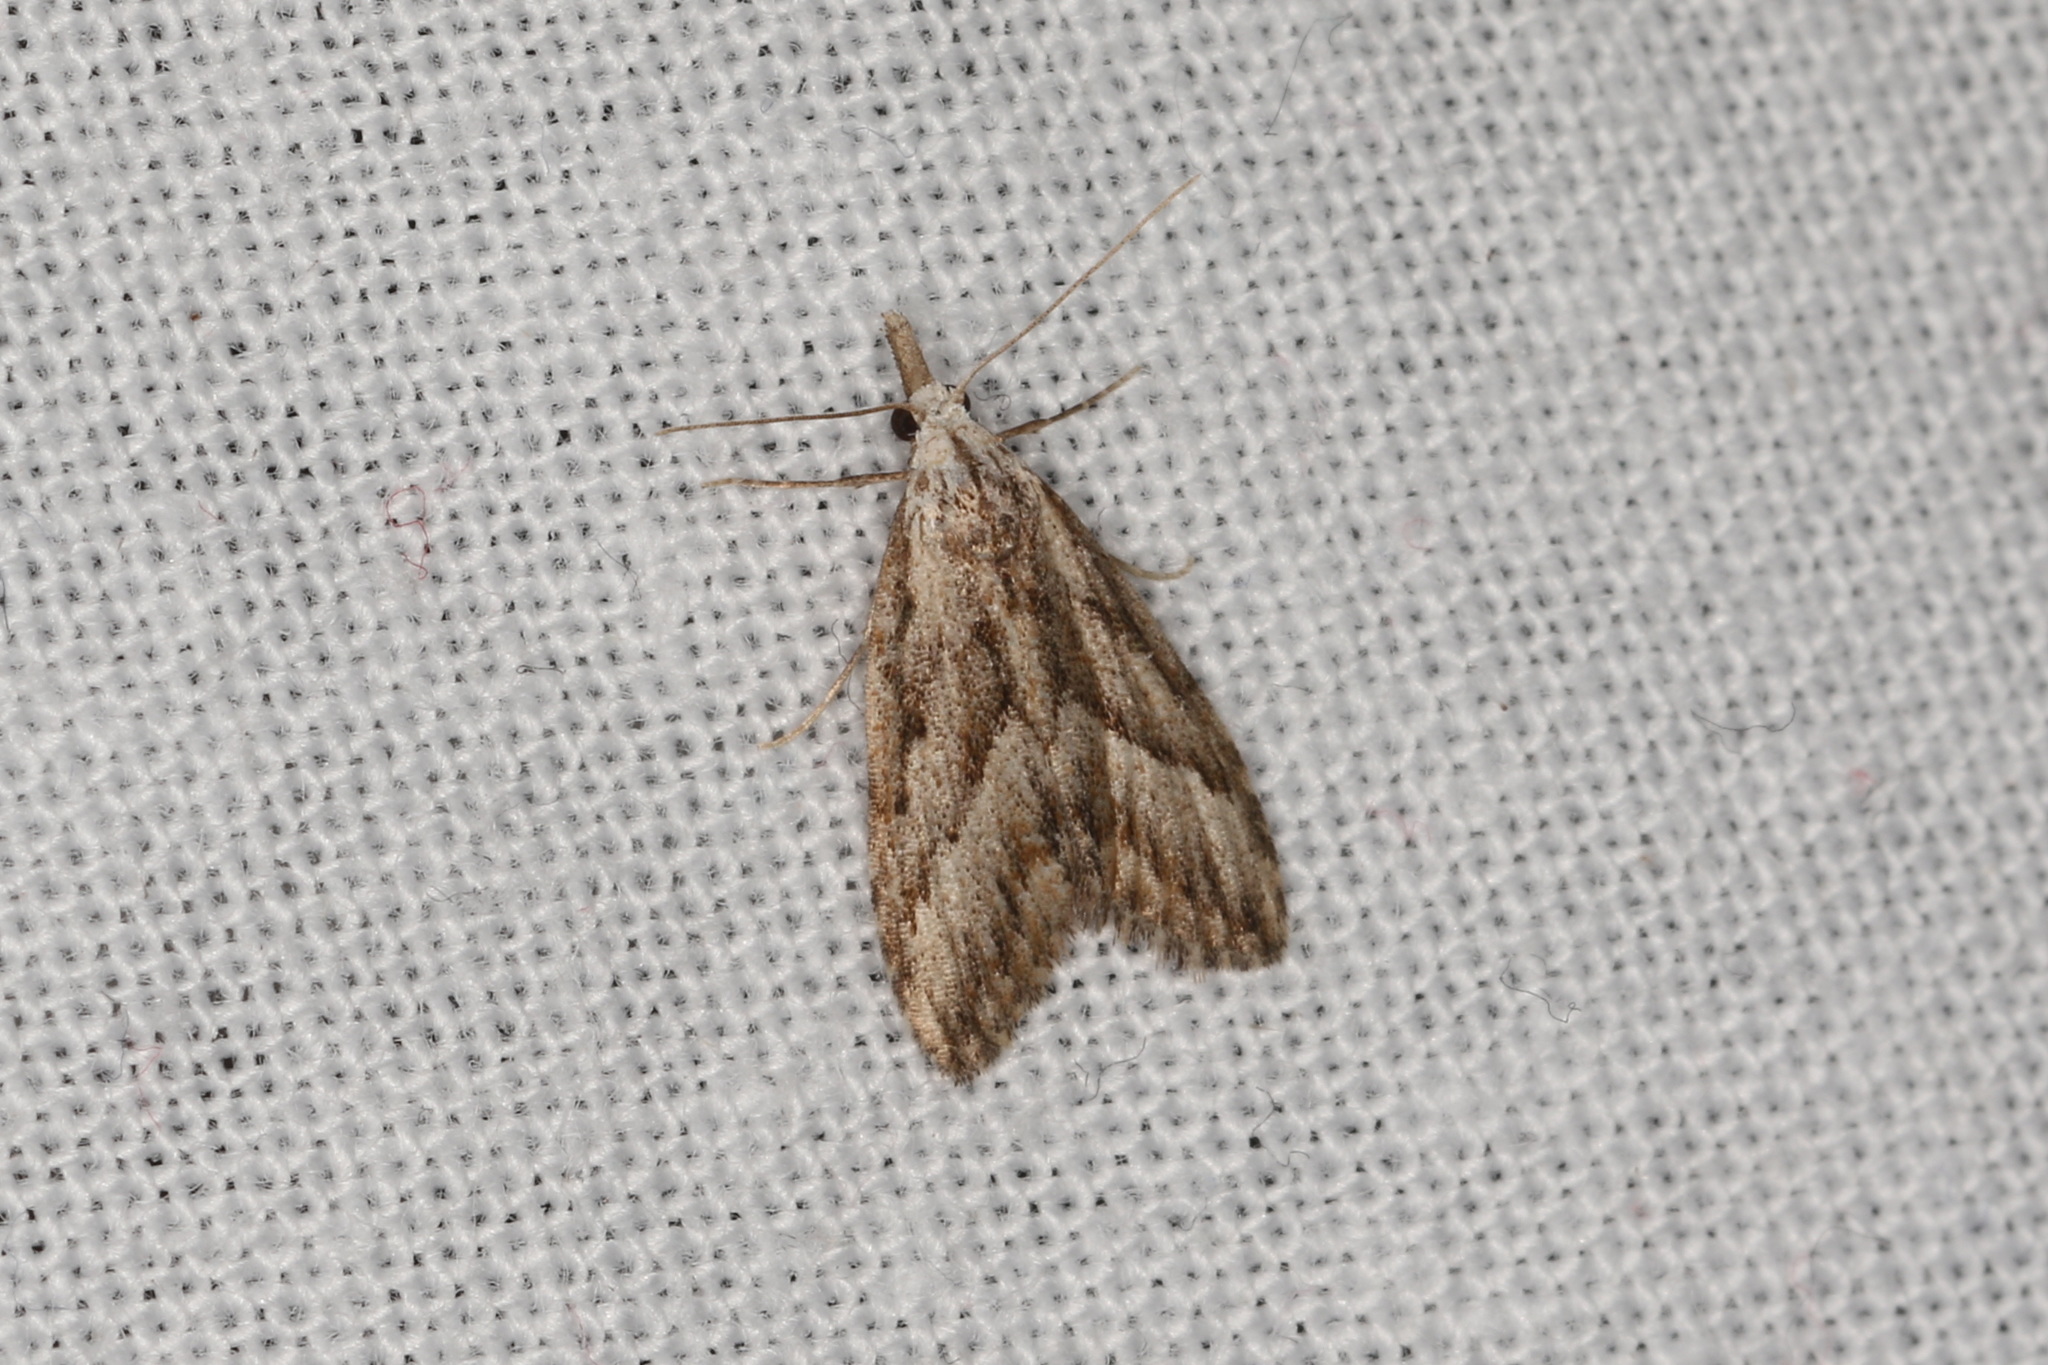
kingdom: Animalia
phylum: Arthropoda
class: Insecta
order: Lepidoptera
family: Nolidae
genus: Nola
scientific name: Nola phaeogramma
